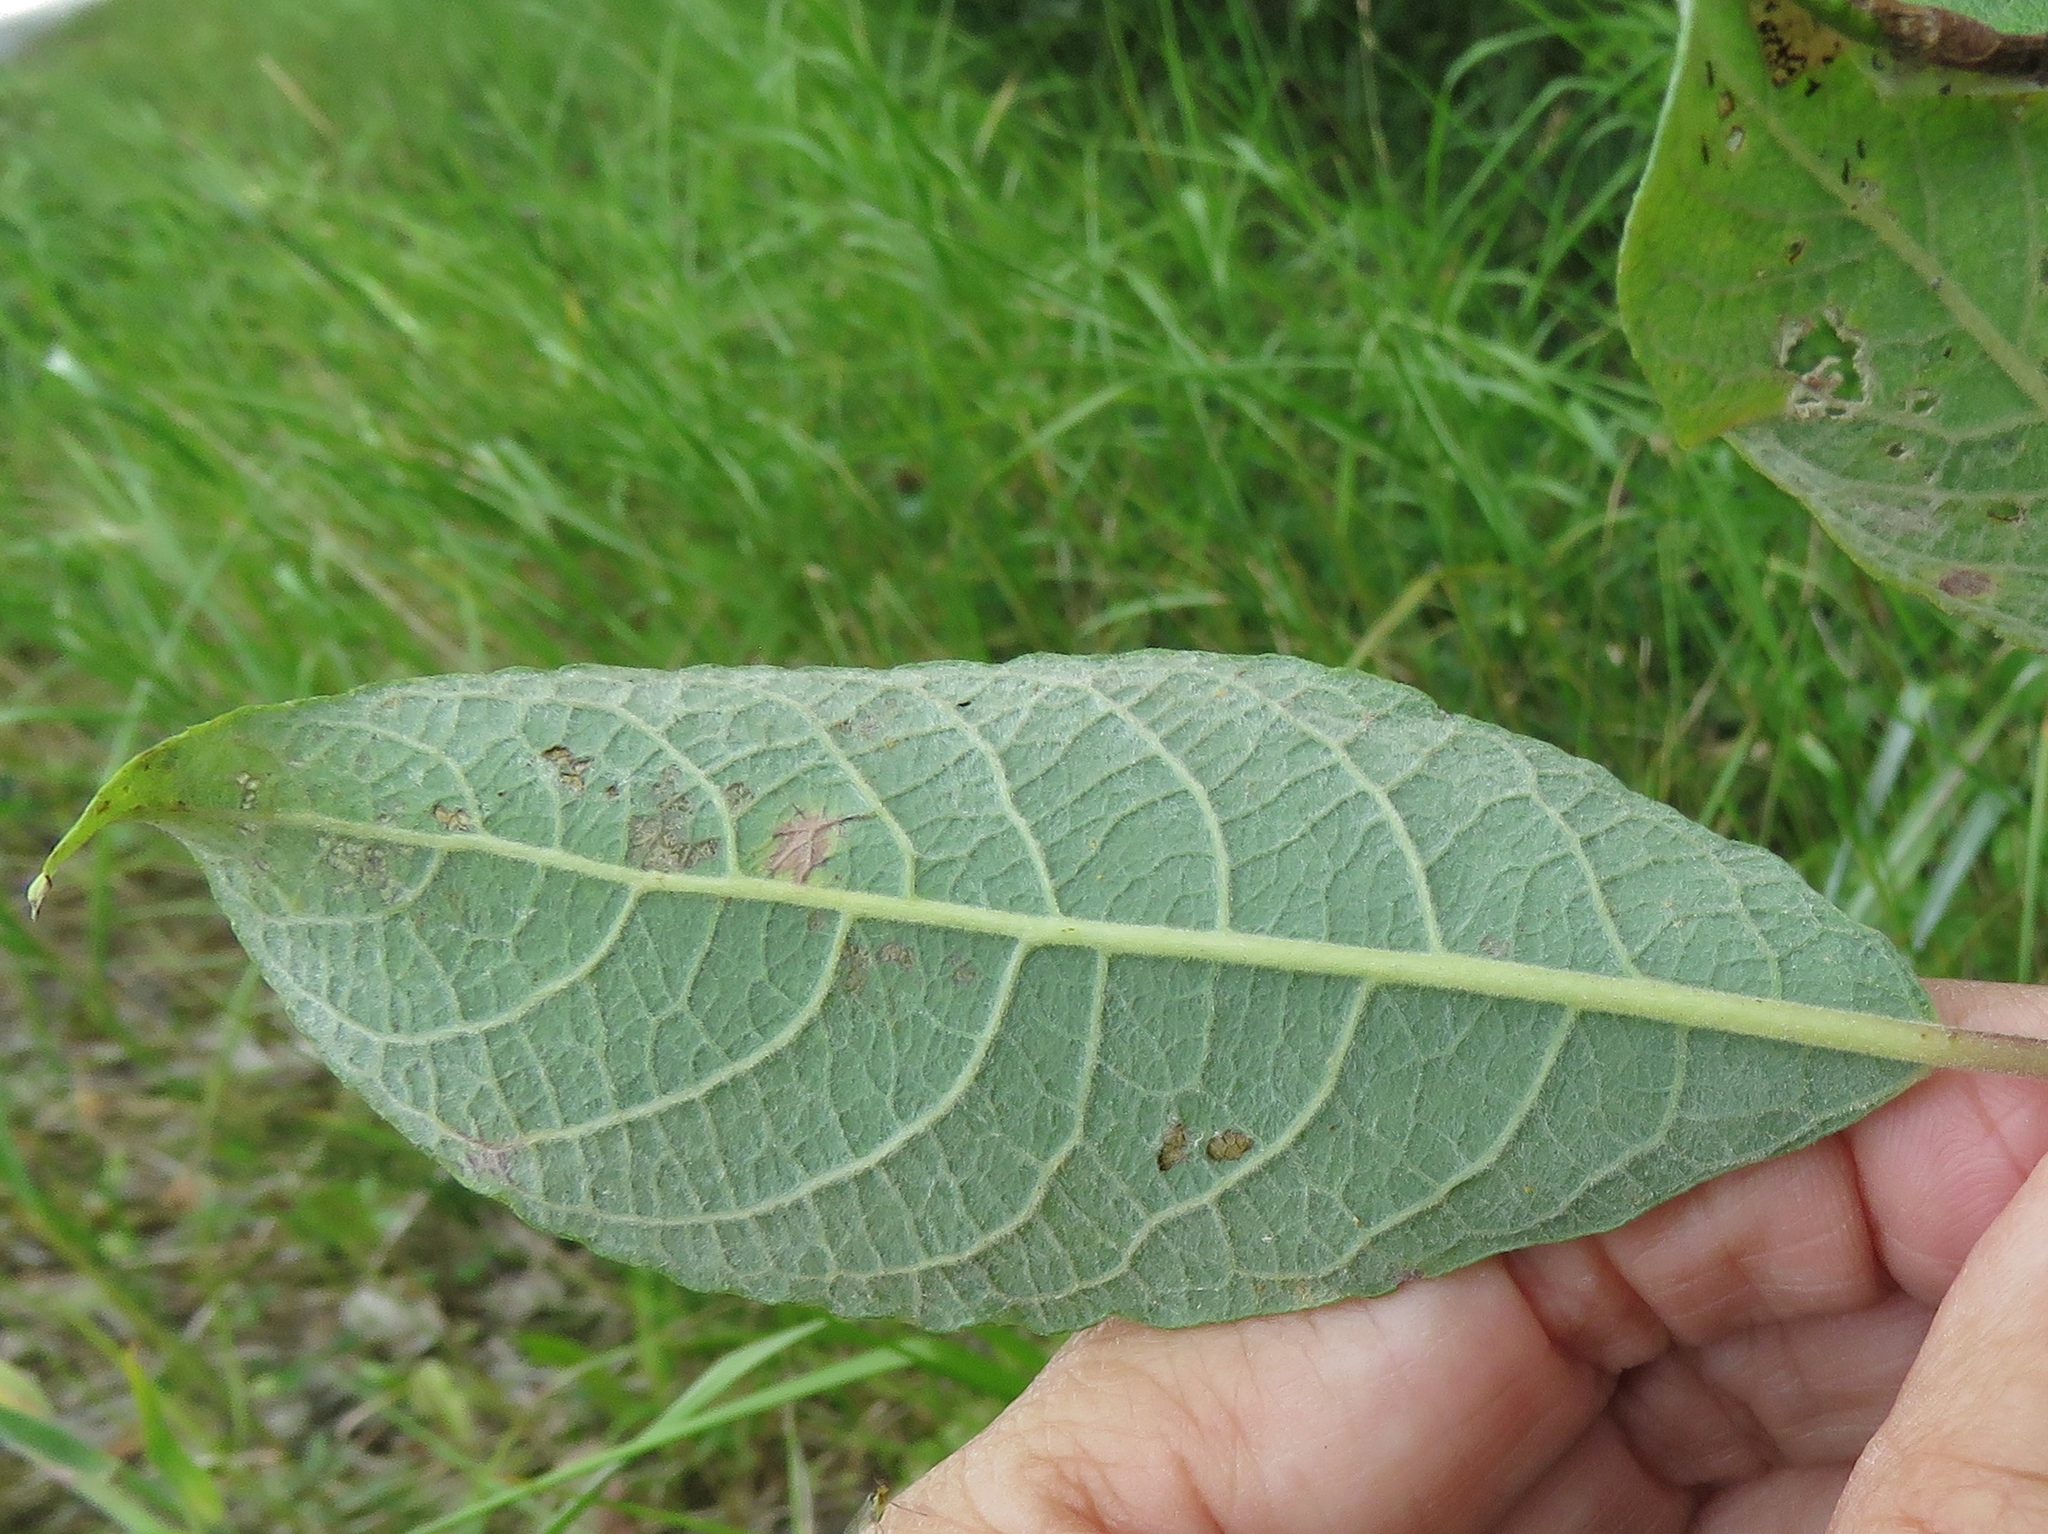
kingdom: Plantae
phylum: Tracheophyta
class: Magnoliopsida
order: Malpighiales
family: Salicaceae
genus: Salix
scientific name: Salix cinerea
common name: Common sallow
